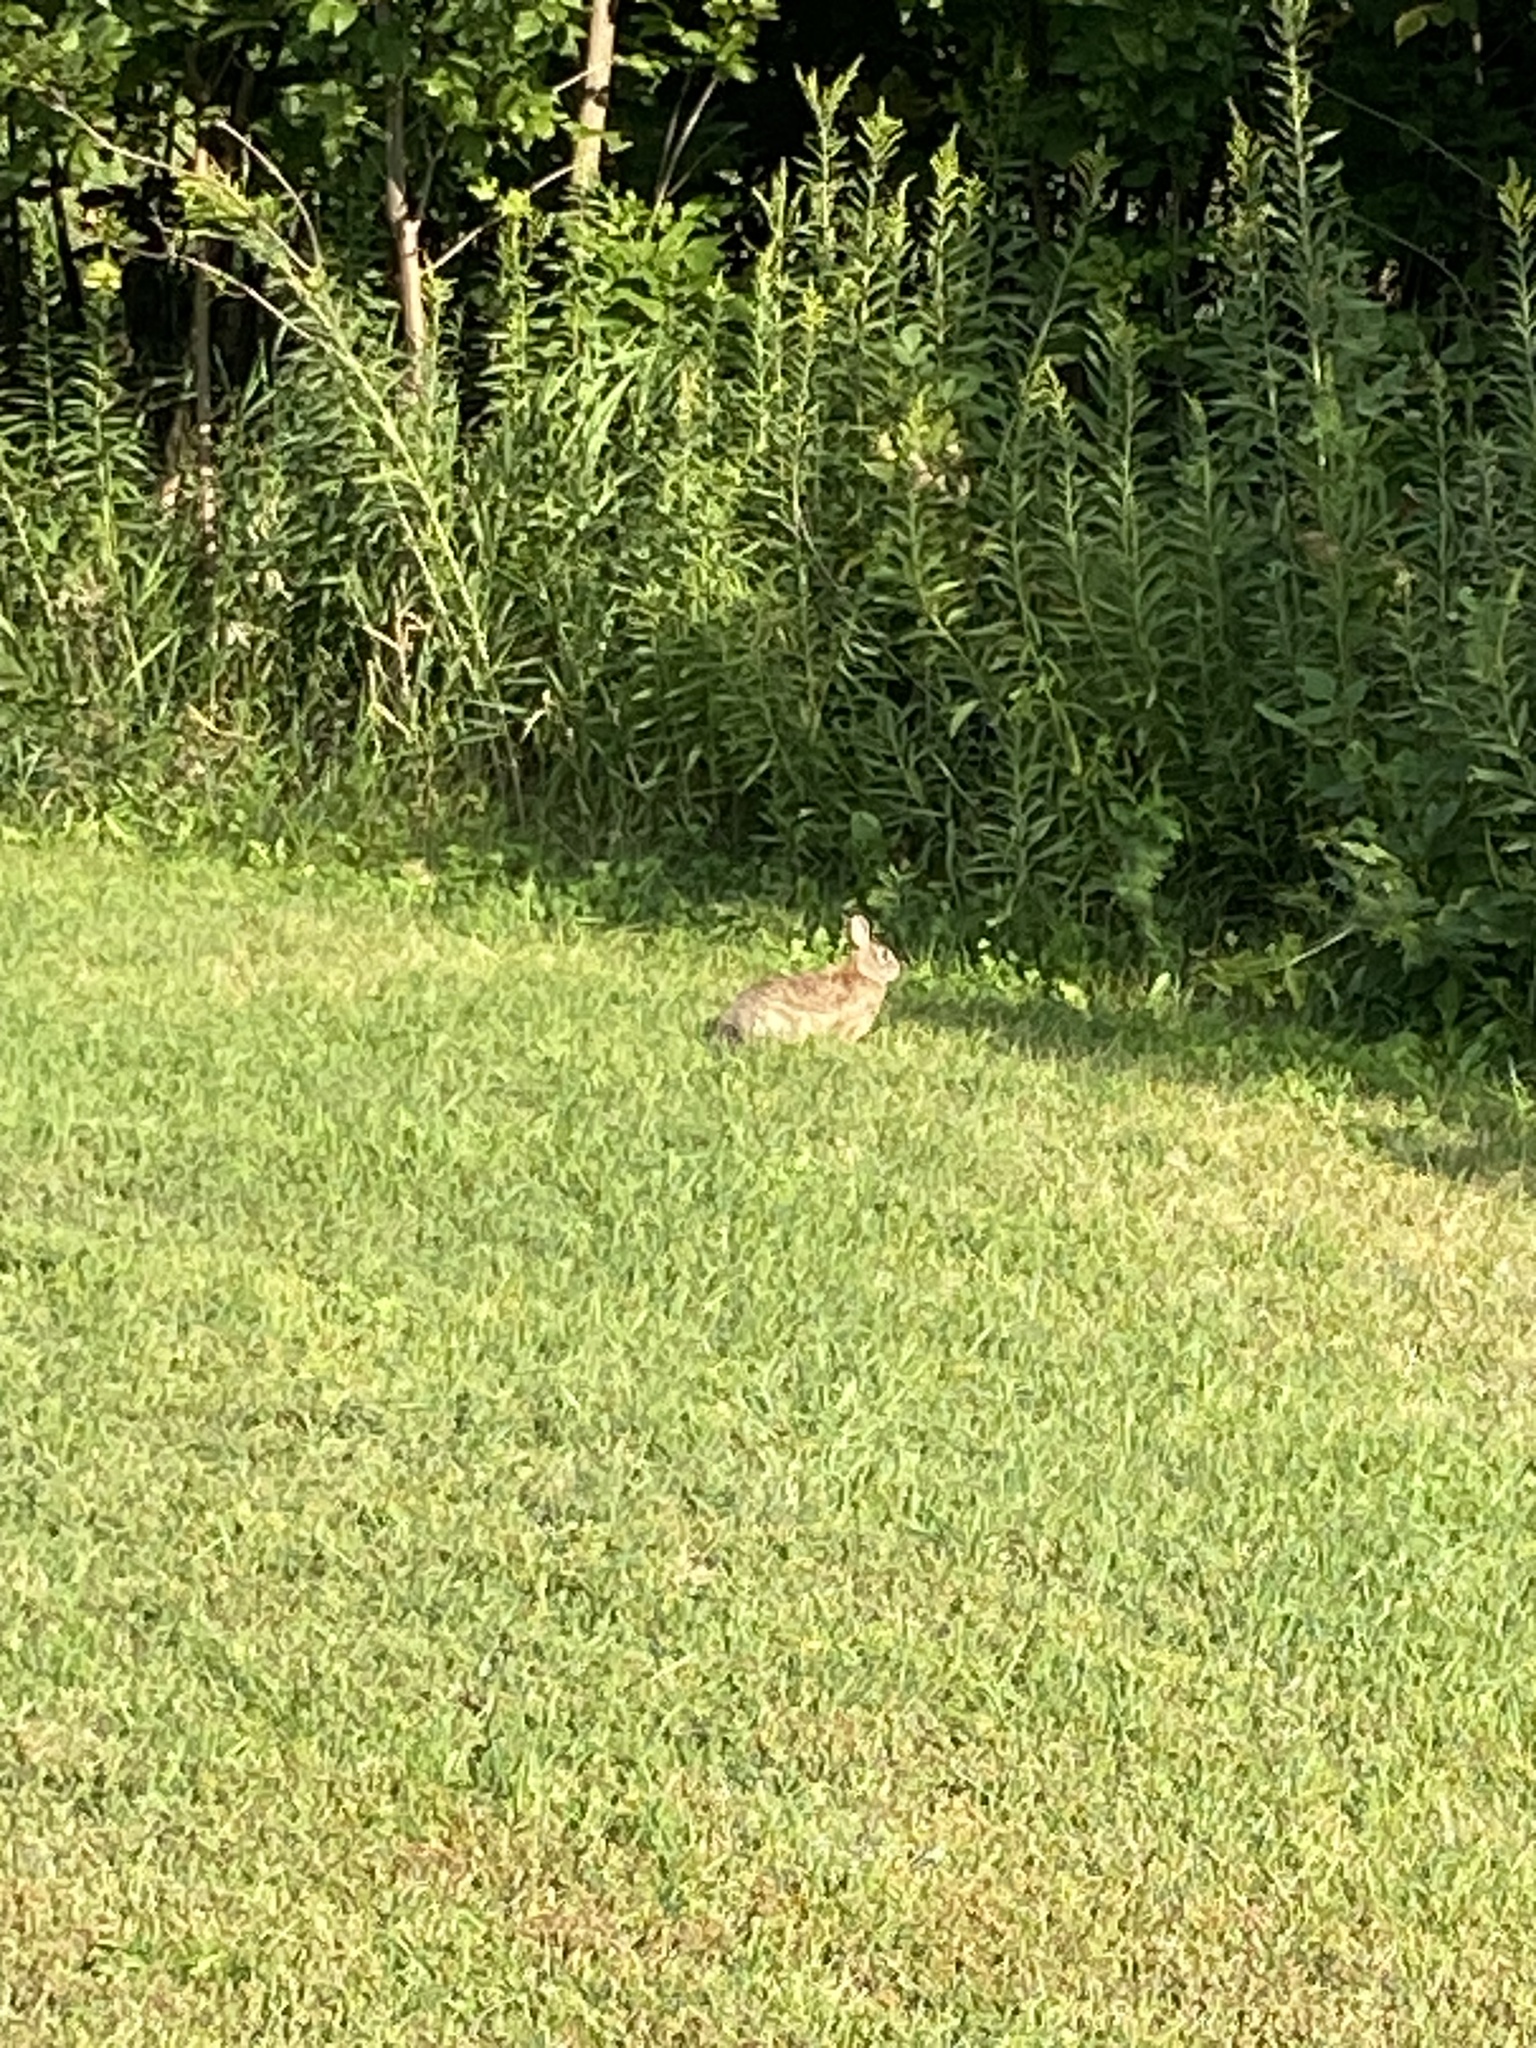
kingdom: Animalia
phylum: Chordata
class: Mammalia
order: Lagomorpha
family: Leporidae
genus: Sylvilagus
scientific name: Sylvilagus floridanus
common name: Eastern cottontail
